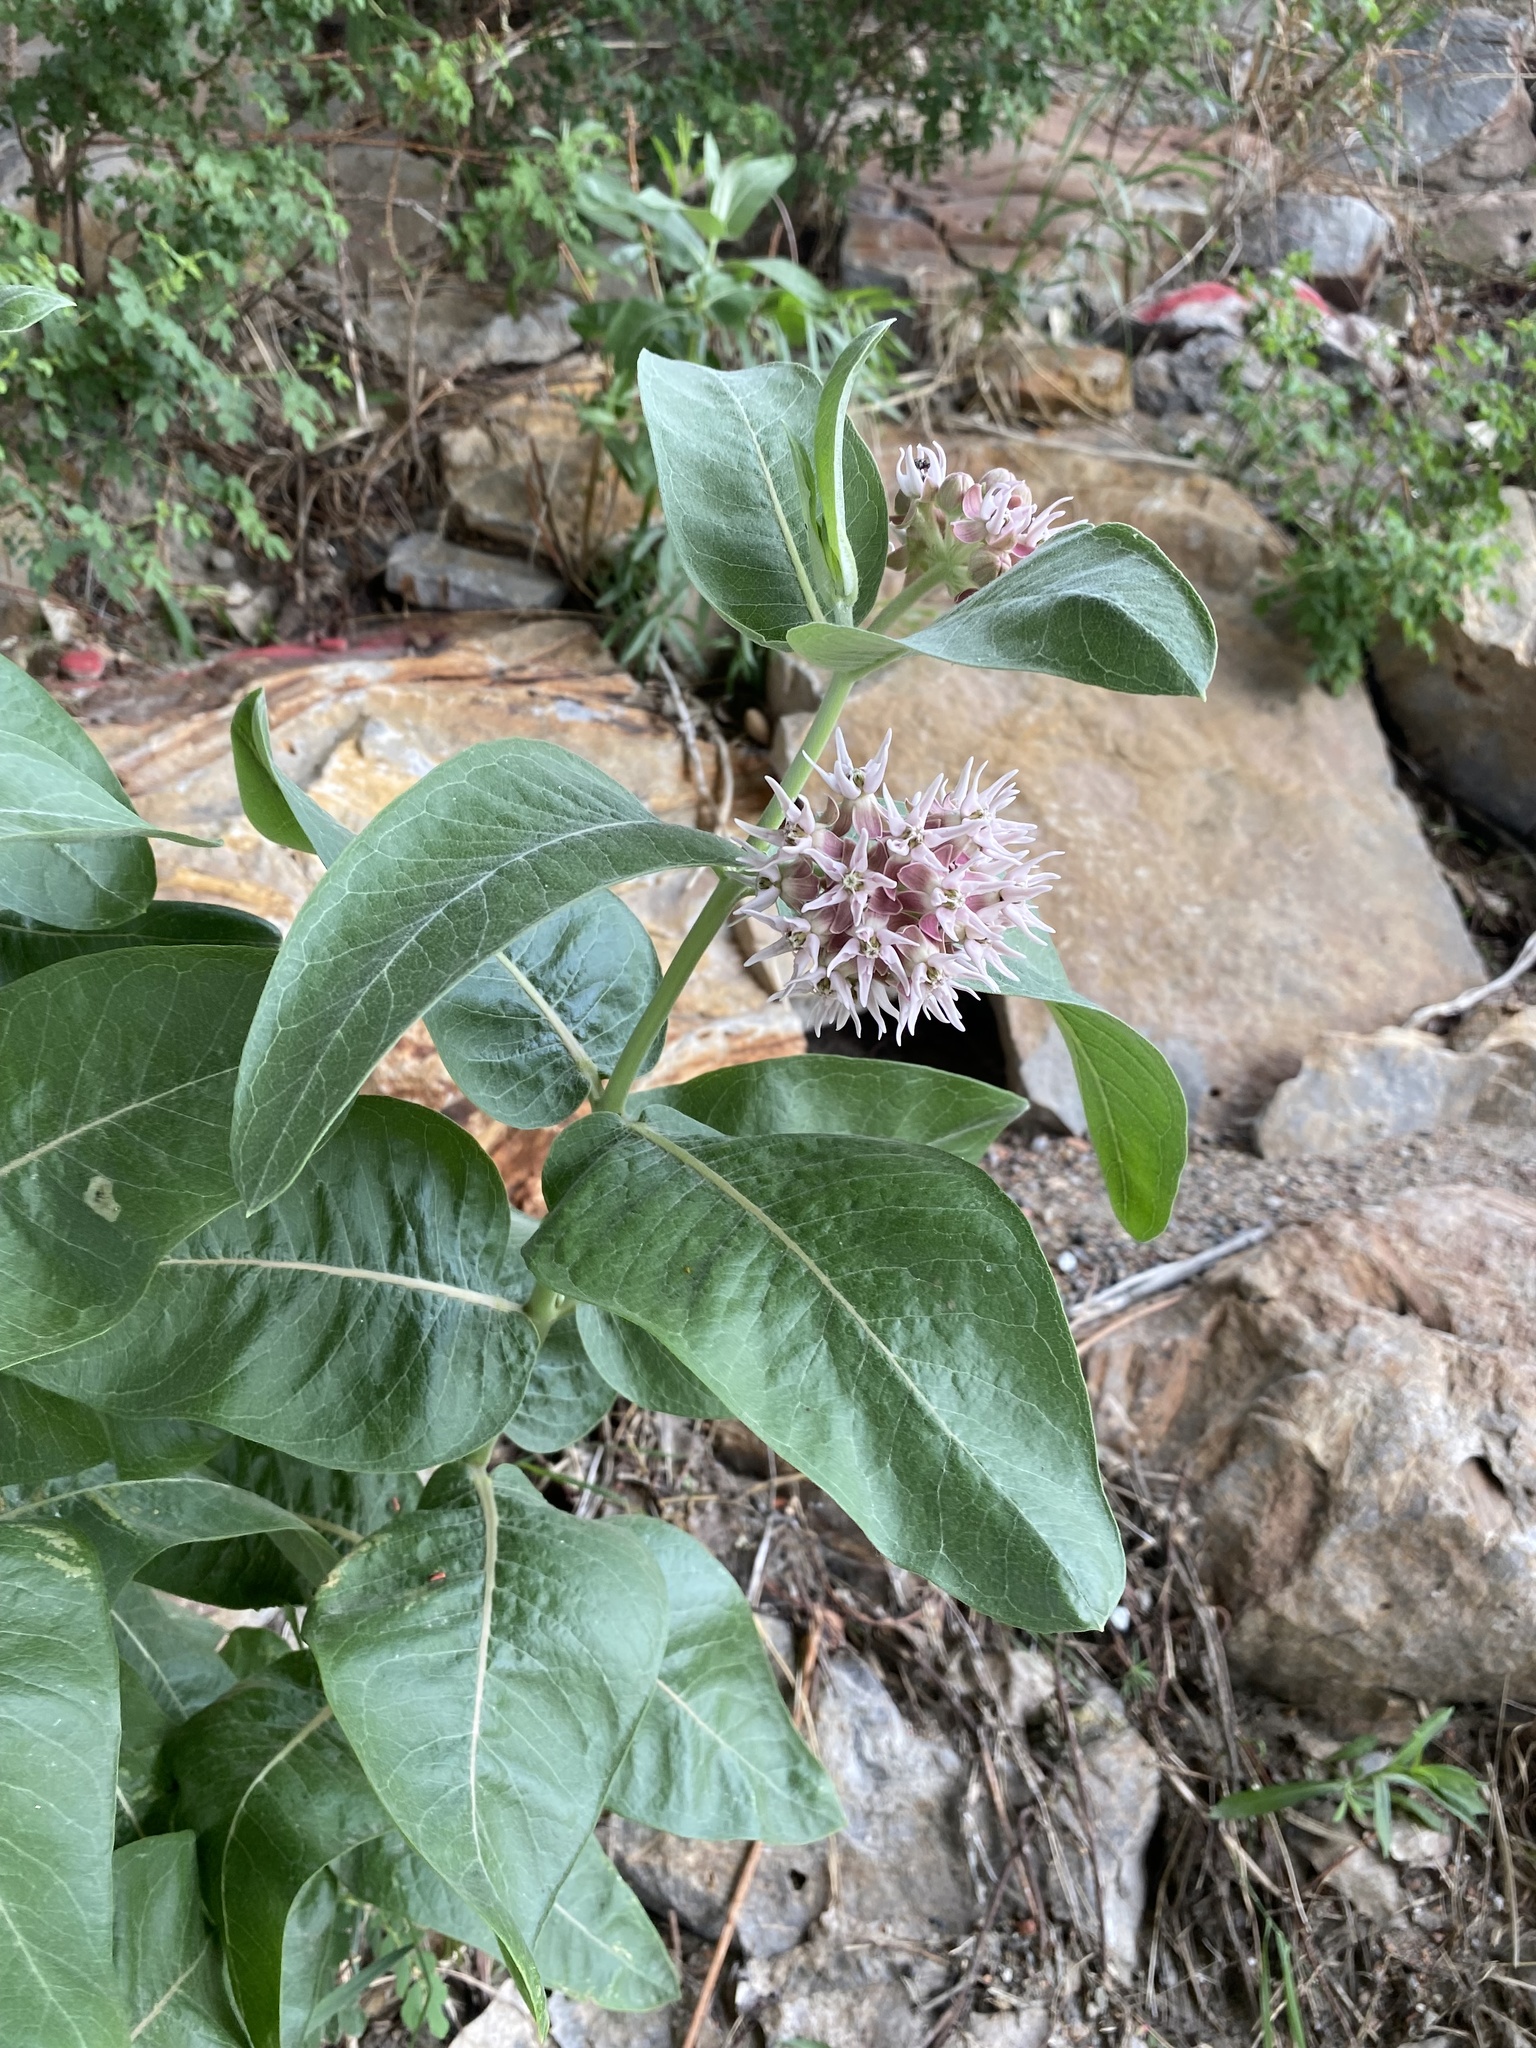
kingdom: Plantae
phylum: Tracheophyta
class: Magnoliopsida
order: Gentianales
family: Apocynaceae
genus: Asclepias
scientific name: Asclepias speciosa
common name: Showy milkweed
